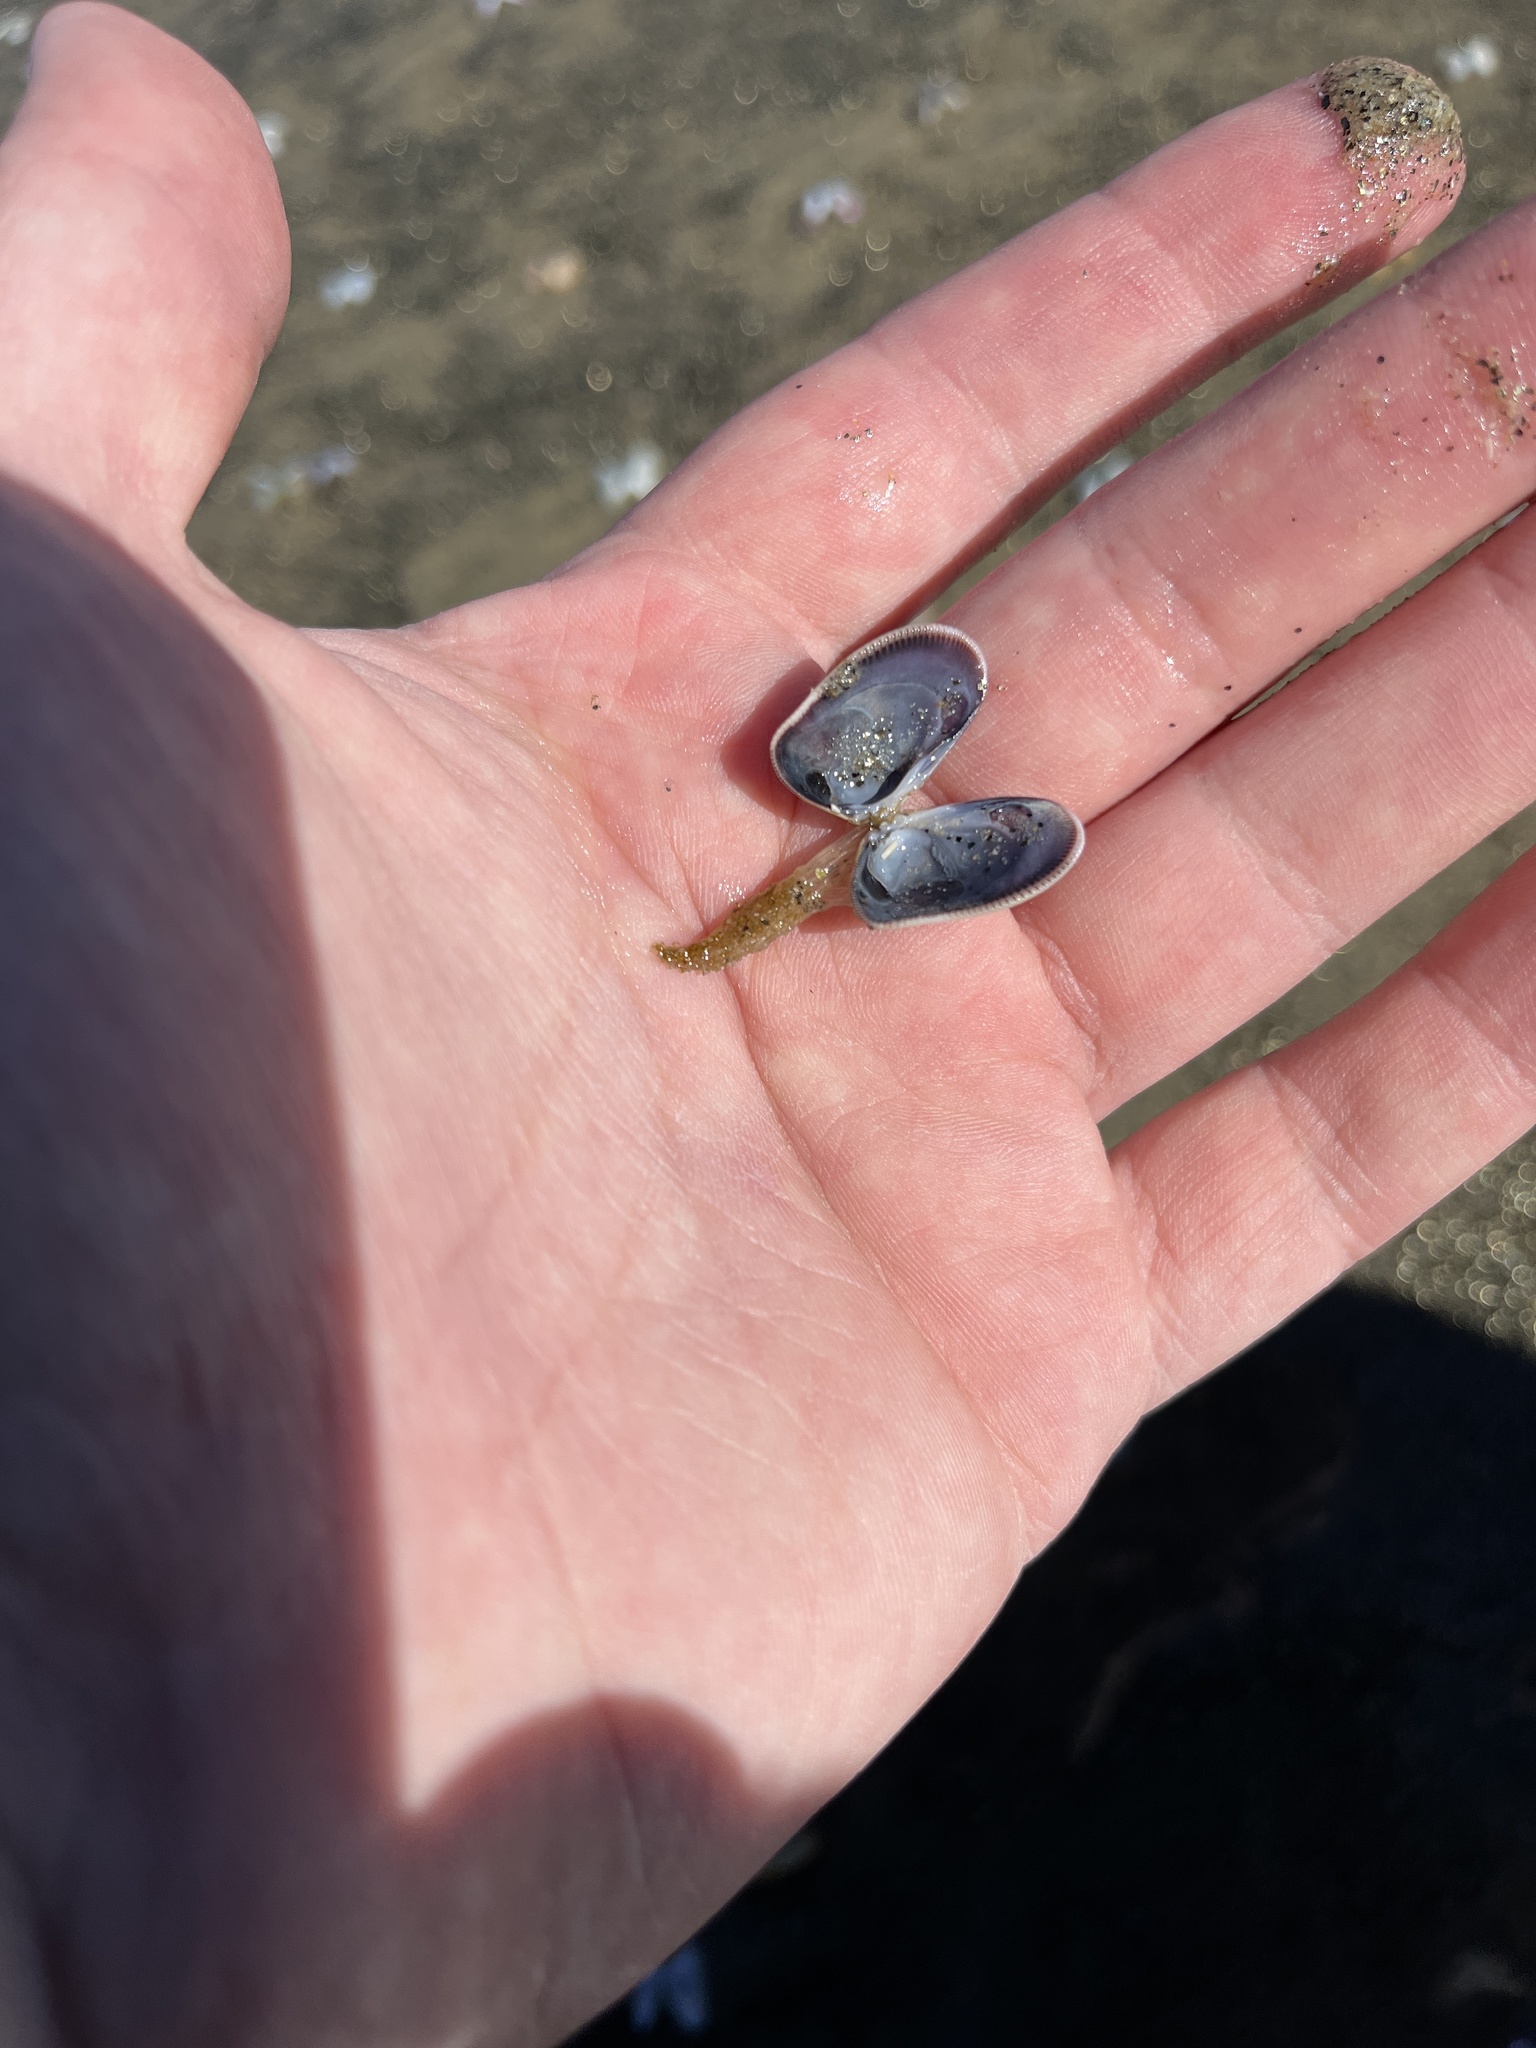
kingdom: Animalia
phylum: Mollusca
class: Bivalvia
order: Cardiida
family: Donacidae
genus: Donax
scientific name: Donax gouldii
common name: Gould beanclam
